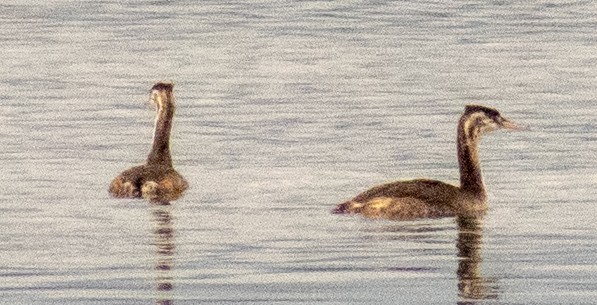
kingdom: Animalia
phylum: Chordata
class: Aves
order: Podicipediformes
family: Podicipedidae
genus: Podiceps
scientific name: Podiceps cristatus
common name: Great crested grebe
